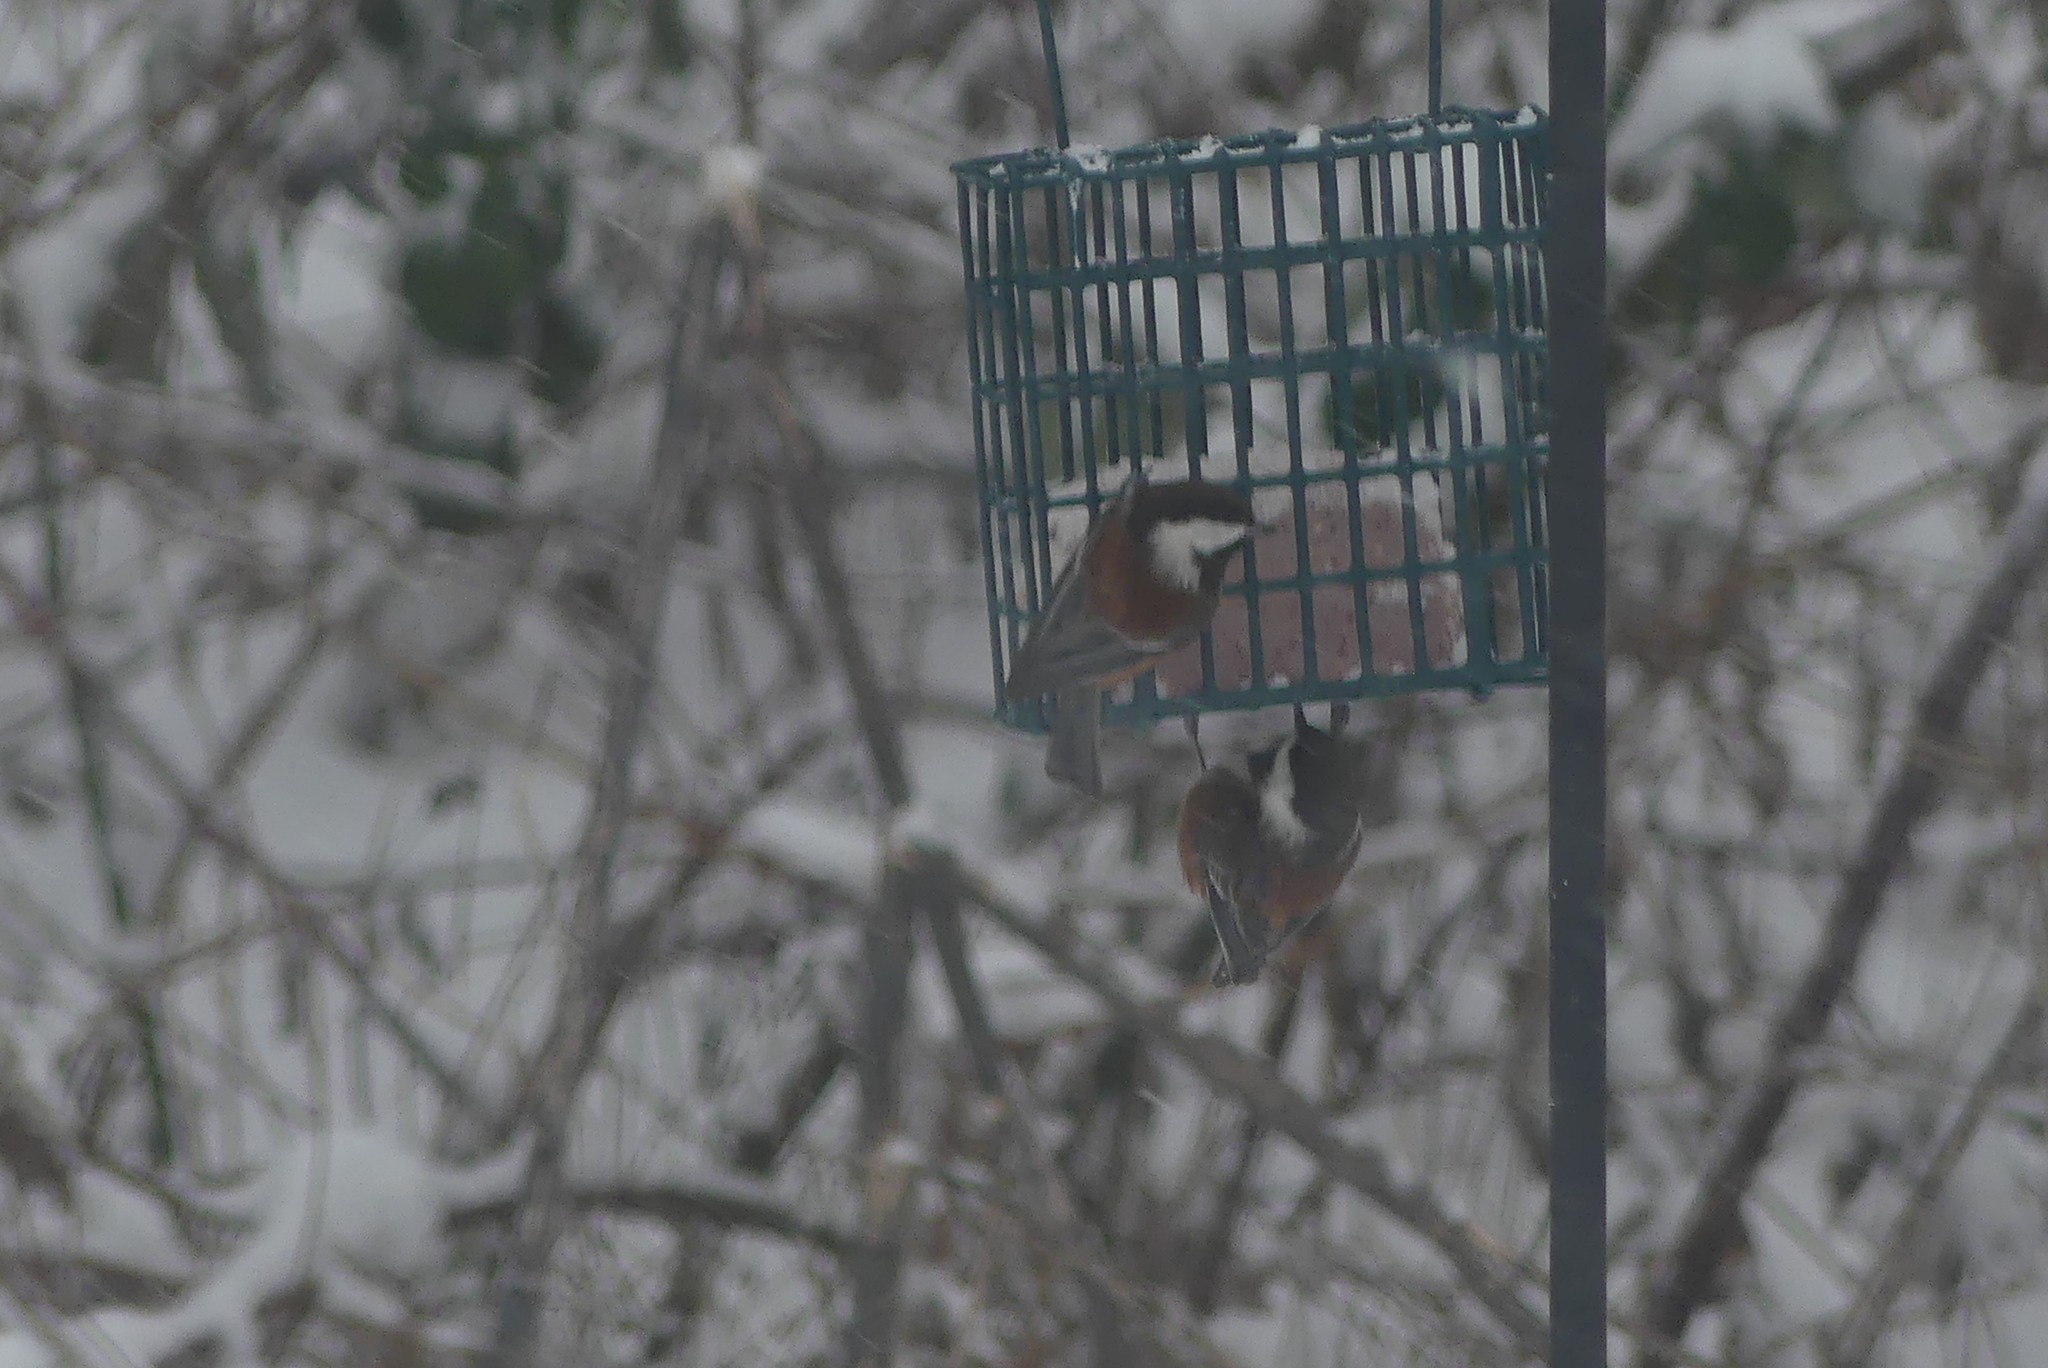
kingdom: Animalia
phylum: Chordata
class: Aves
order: Passeriformes
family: Paridae
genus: Poecile
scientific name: Poecile rufescens
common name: Chestnut-backed chickadee
